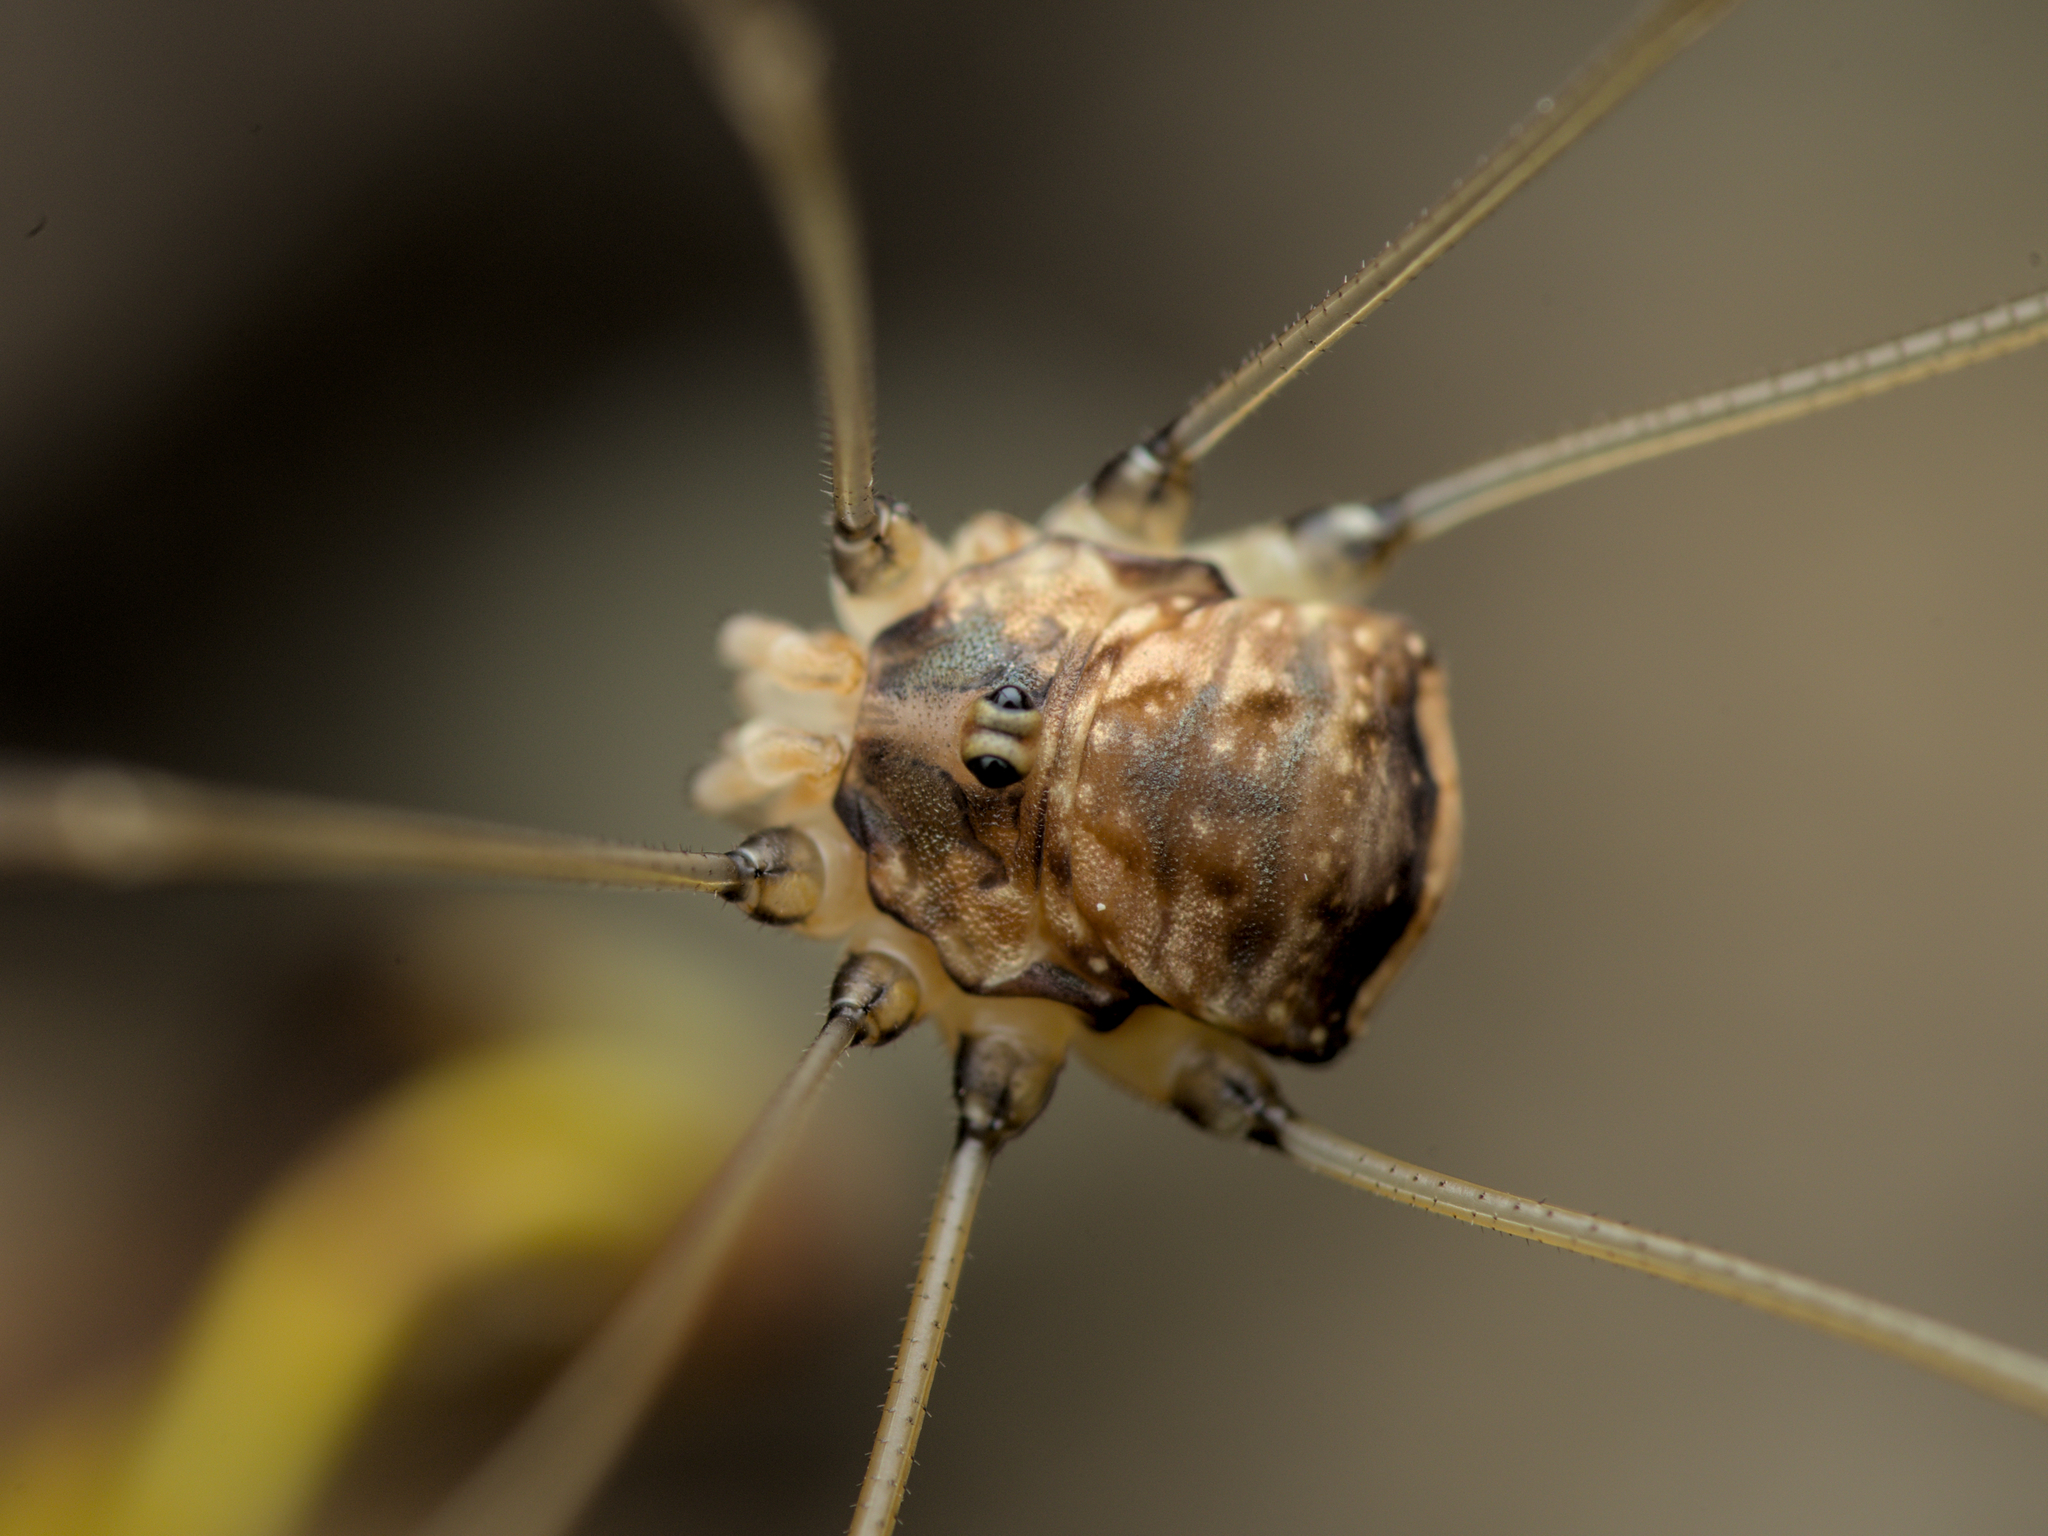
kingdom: Animalia
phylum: Arthropoda
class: Arachnida
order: Opiliones
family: Sclerosomatidae
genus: Leiobunum
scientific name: Leiobunum blackwalli
